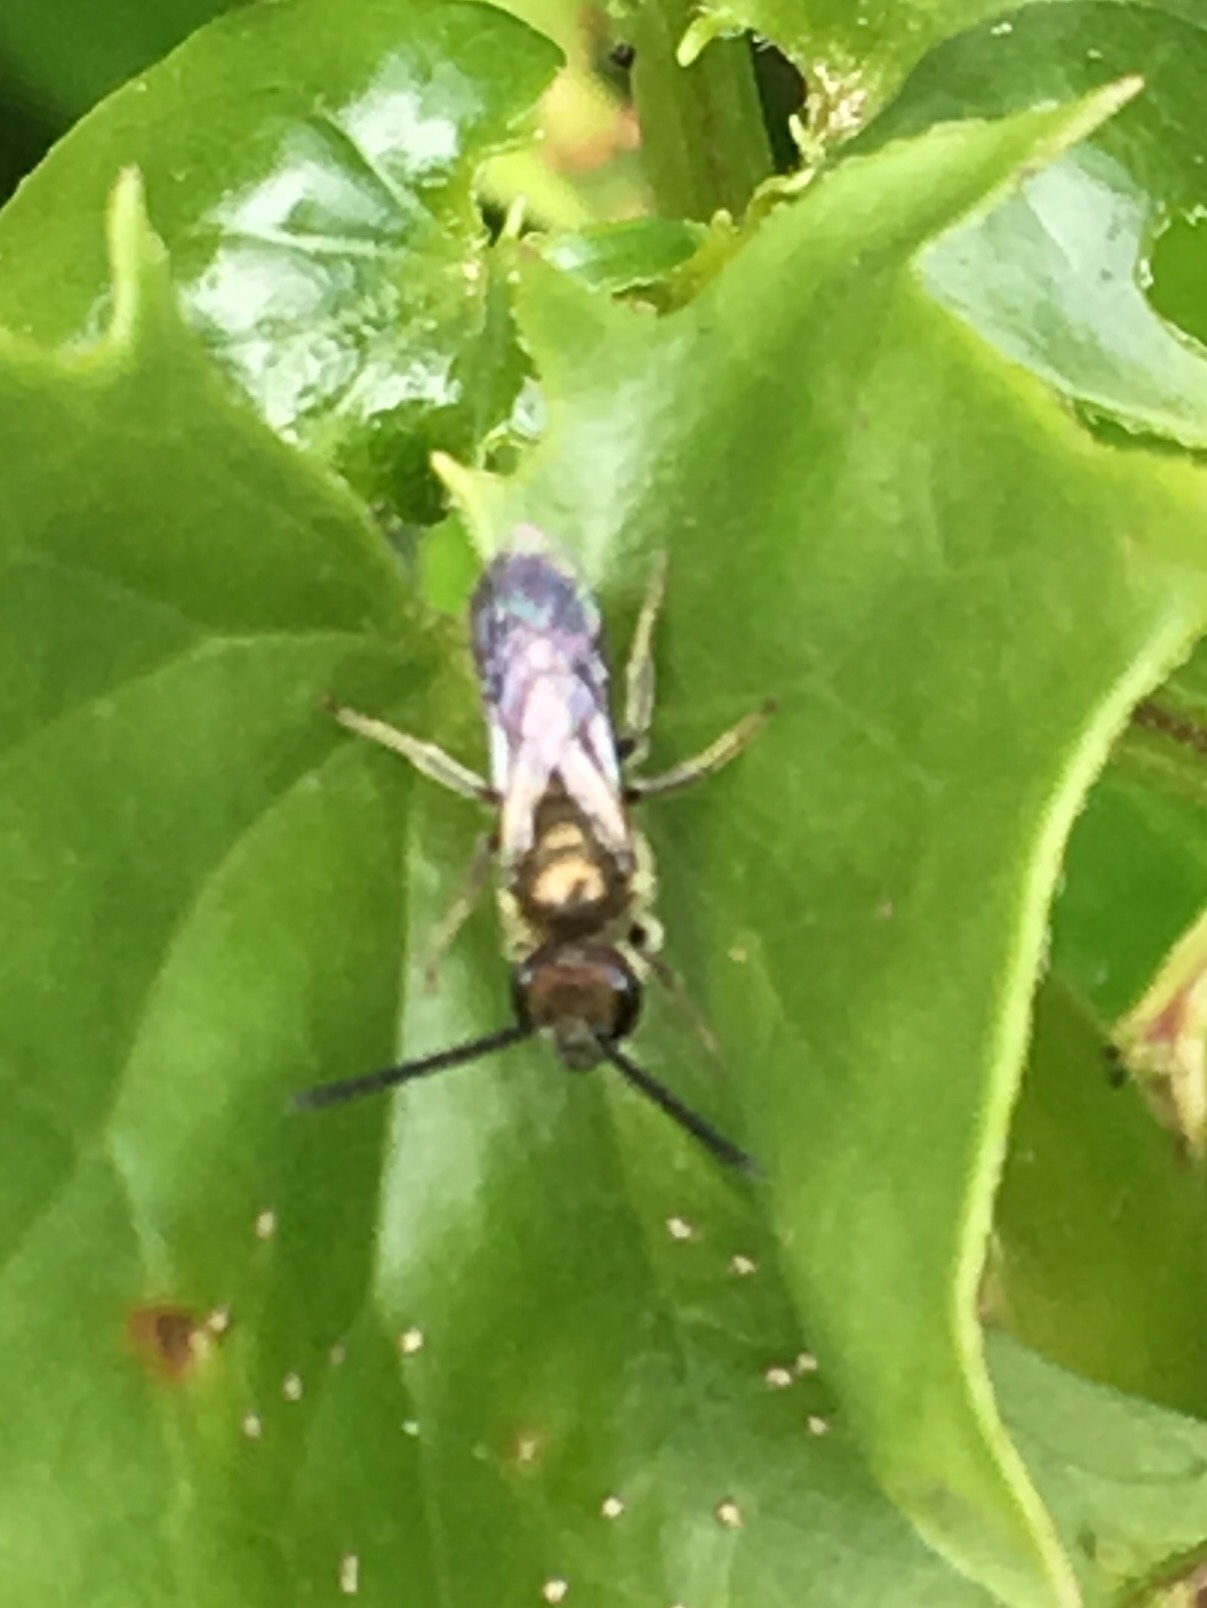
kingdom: Animalia
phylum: Arthropoda
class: Insecta
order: Hymenoptera
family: Halictidae
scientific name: Halictidae
